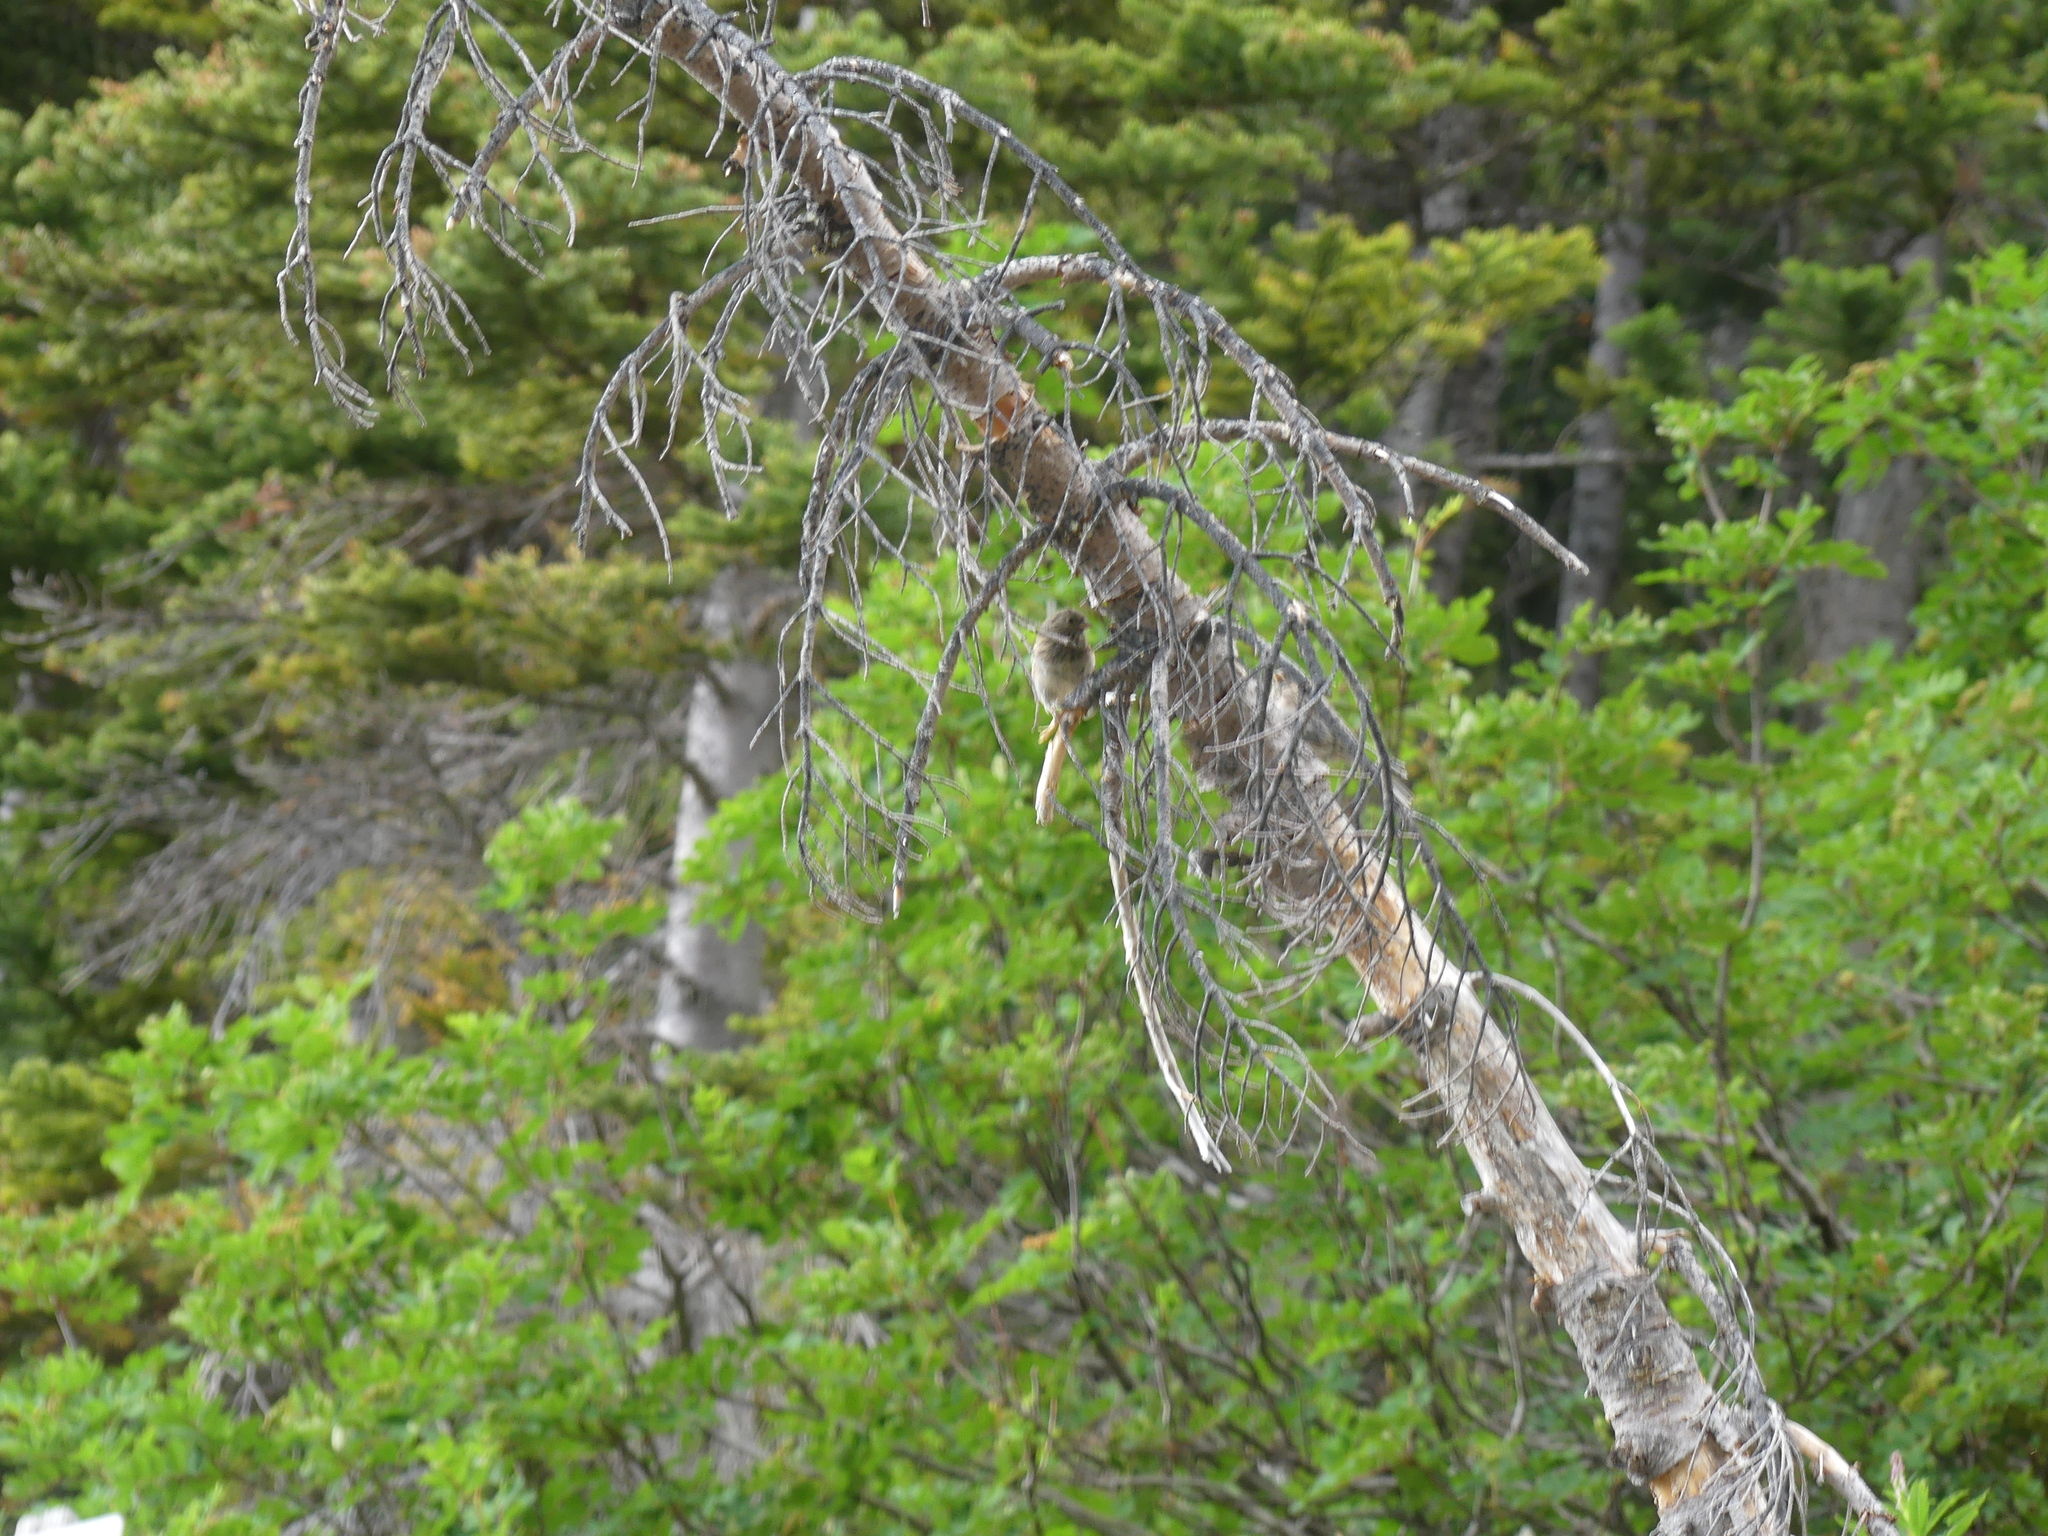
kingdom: Animalia
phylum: Chordata
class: Aves
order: Passeriformes
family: Passerellidae
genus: Junco
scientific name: Junco hyemalis
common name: Dark-eyed junco
